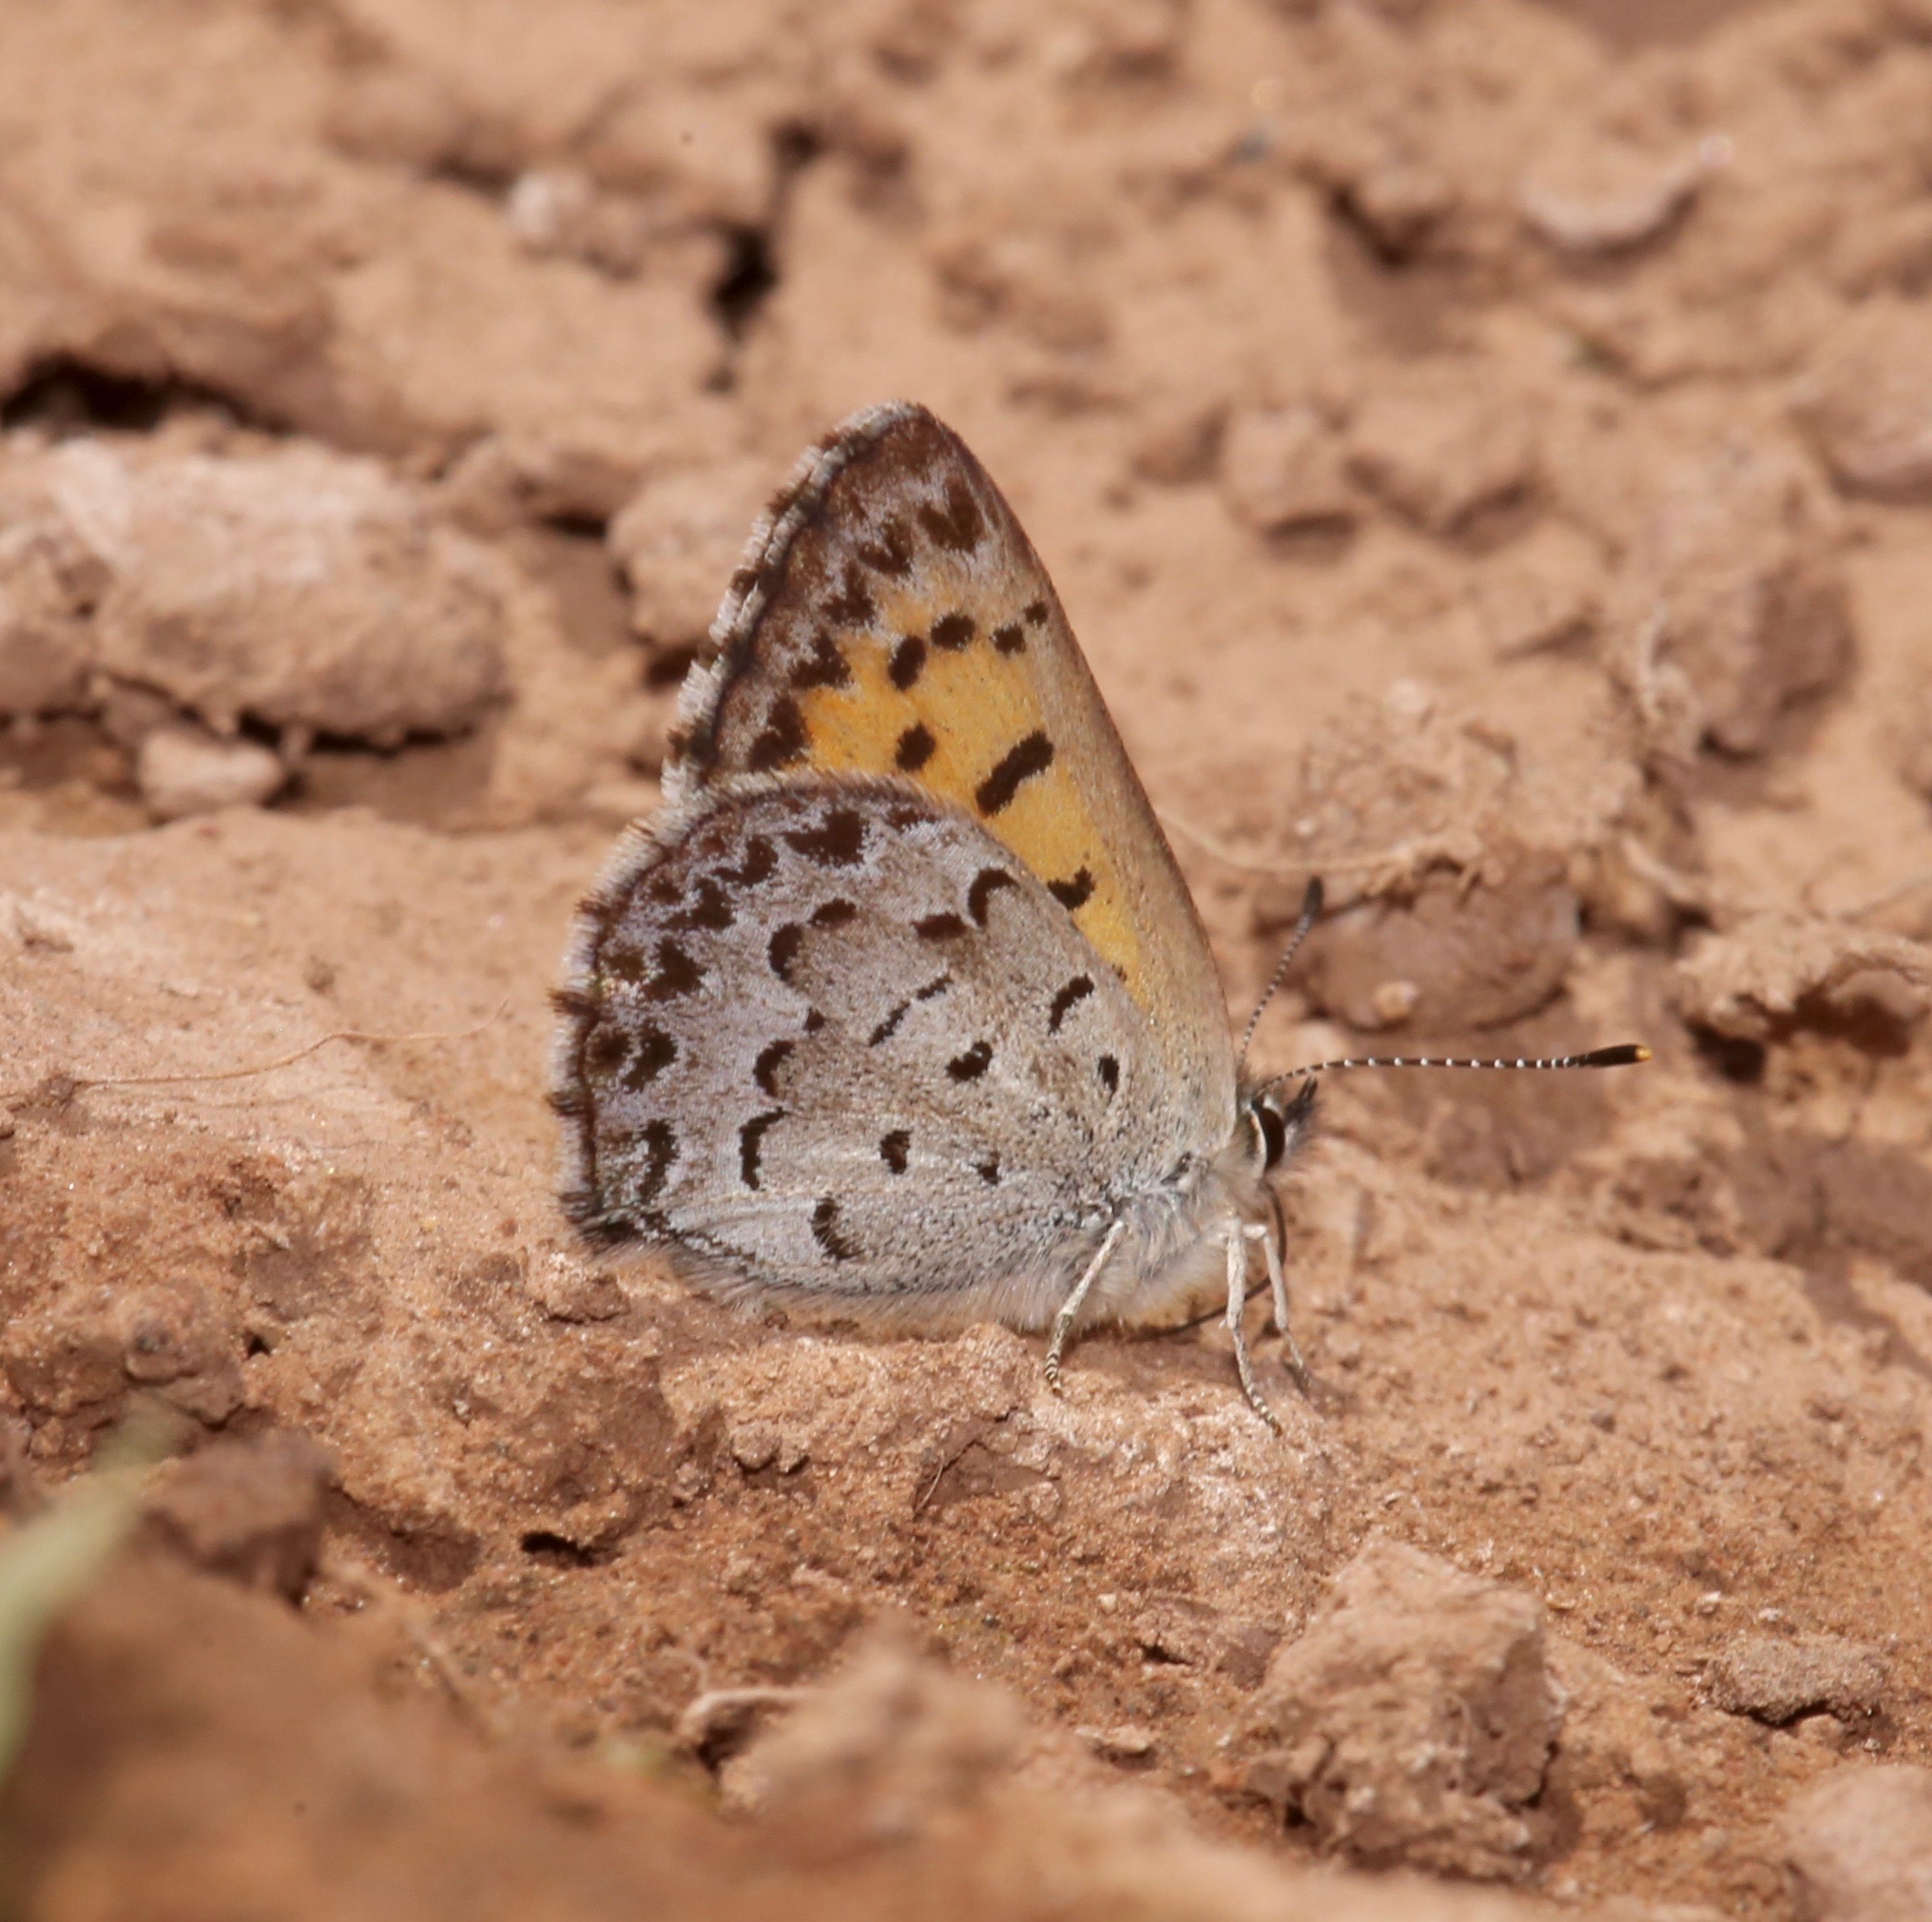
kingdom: Animalia
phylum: Arthropoda
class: Insecta
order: Lepidoptera
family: Lycaenidae
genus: Tharsalea
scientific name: Tharsalea mariposa
